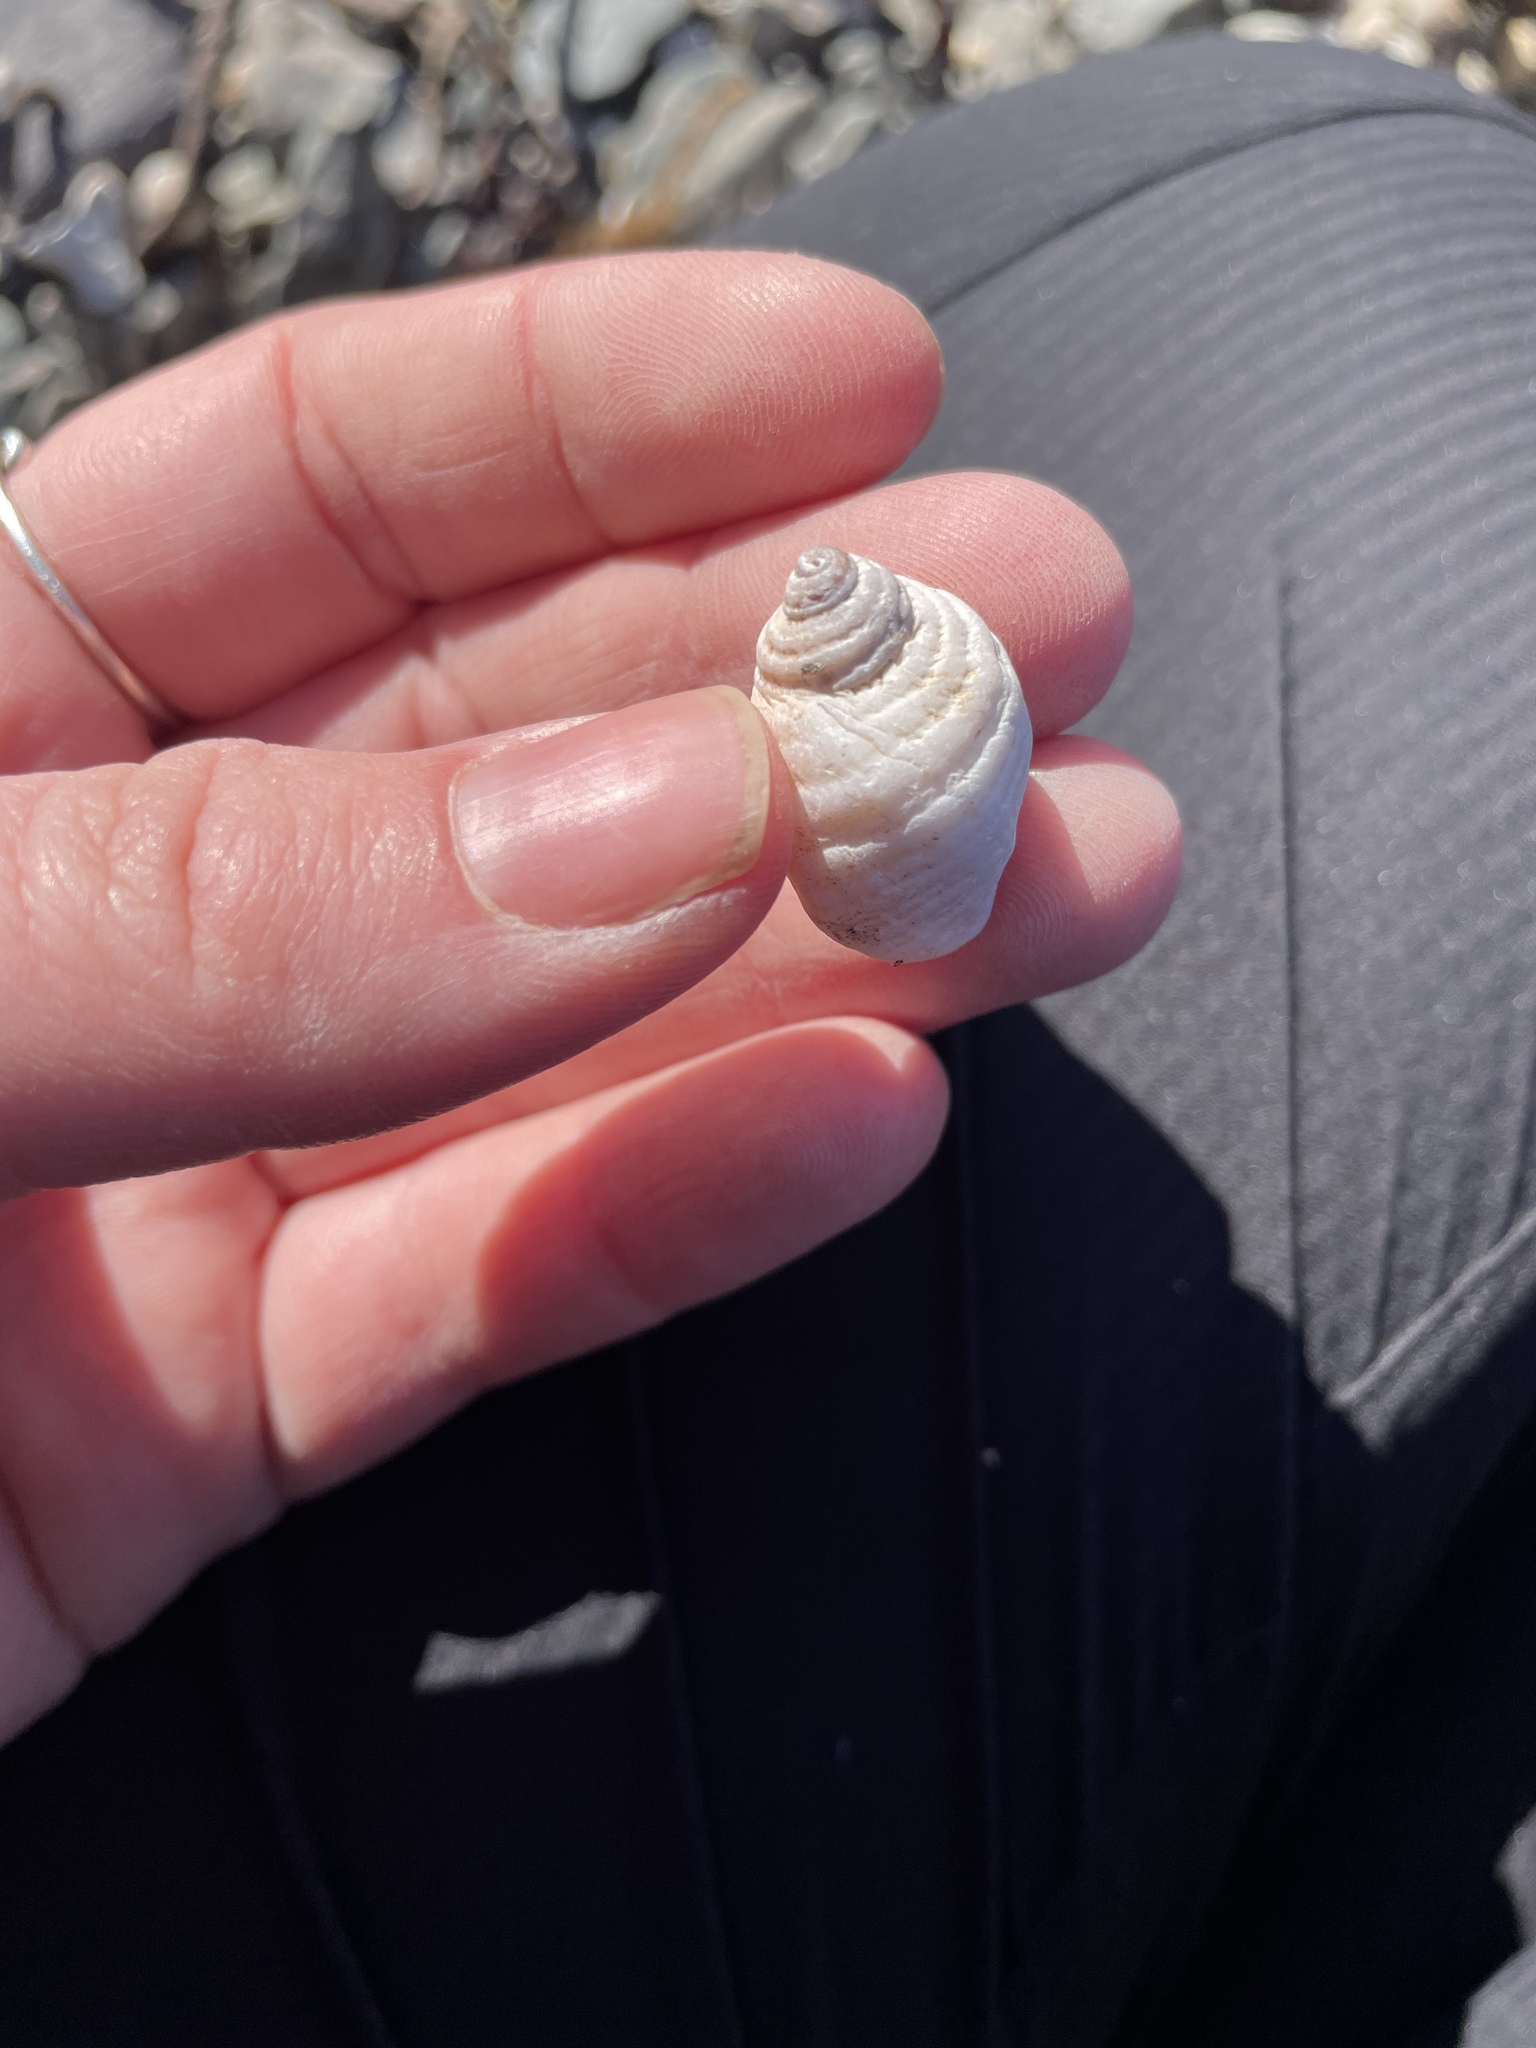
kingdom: Animalia
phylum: Mollusca
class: Gastropoda
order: Neogastropoda
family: Muricidae
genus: Nucella
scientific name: Nucella lapillus
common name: Dog whelk
